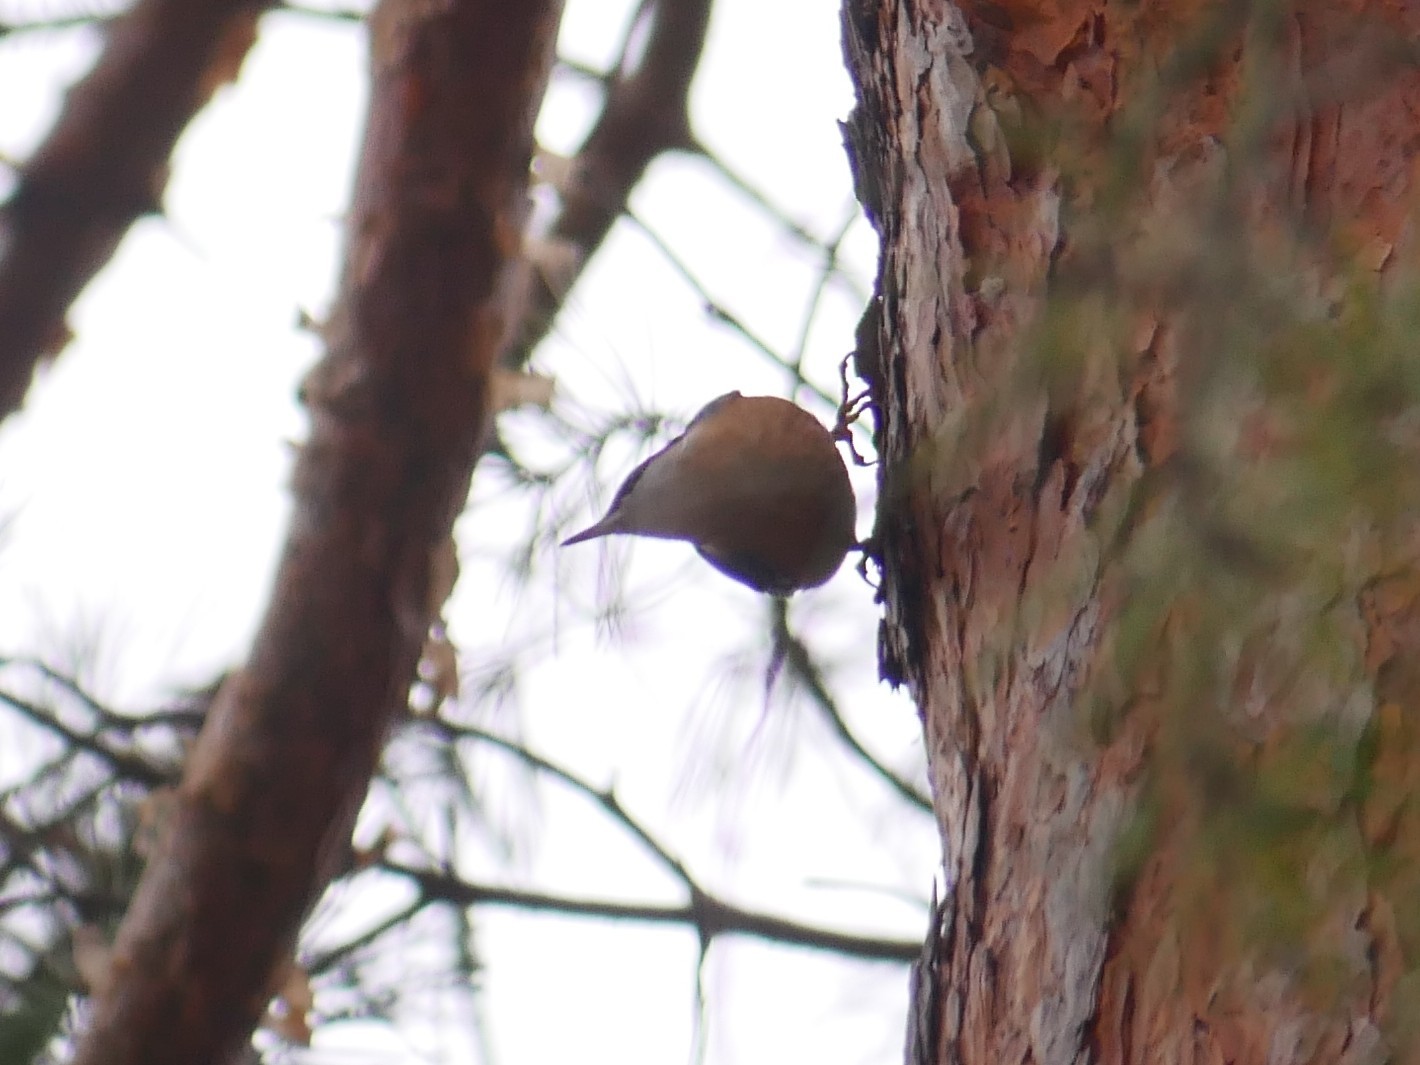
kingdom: Animalia
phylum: Chordata
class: Aves
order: Passeriformes
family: Sittidae
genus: Sitta
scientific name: Sitta europaea
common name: Eurasian nuthatch
